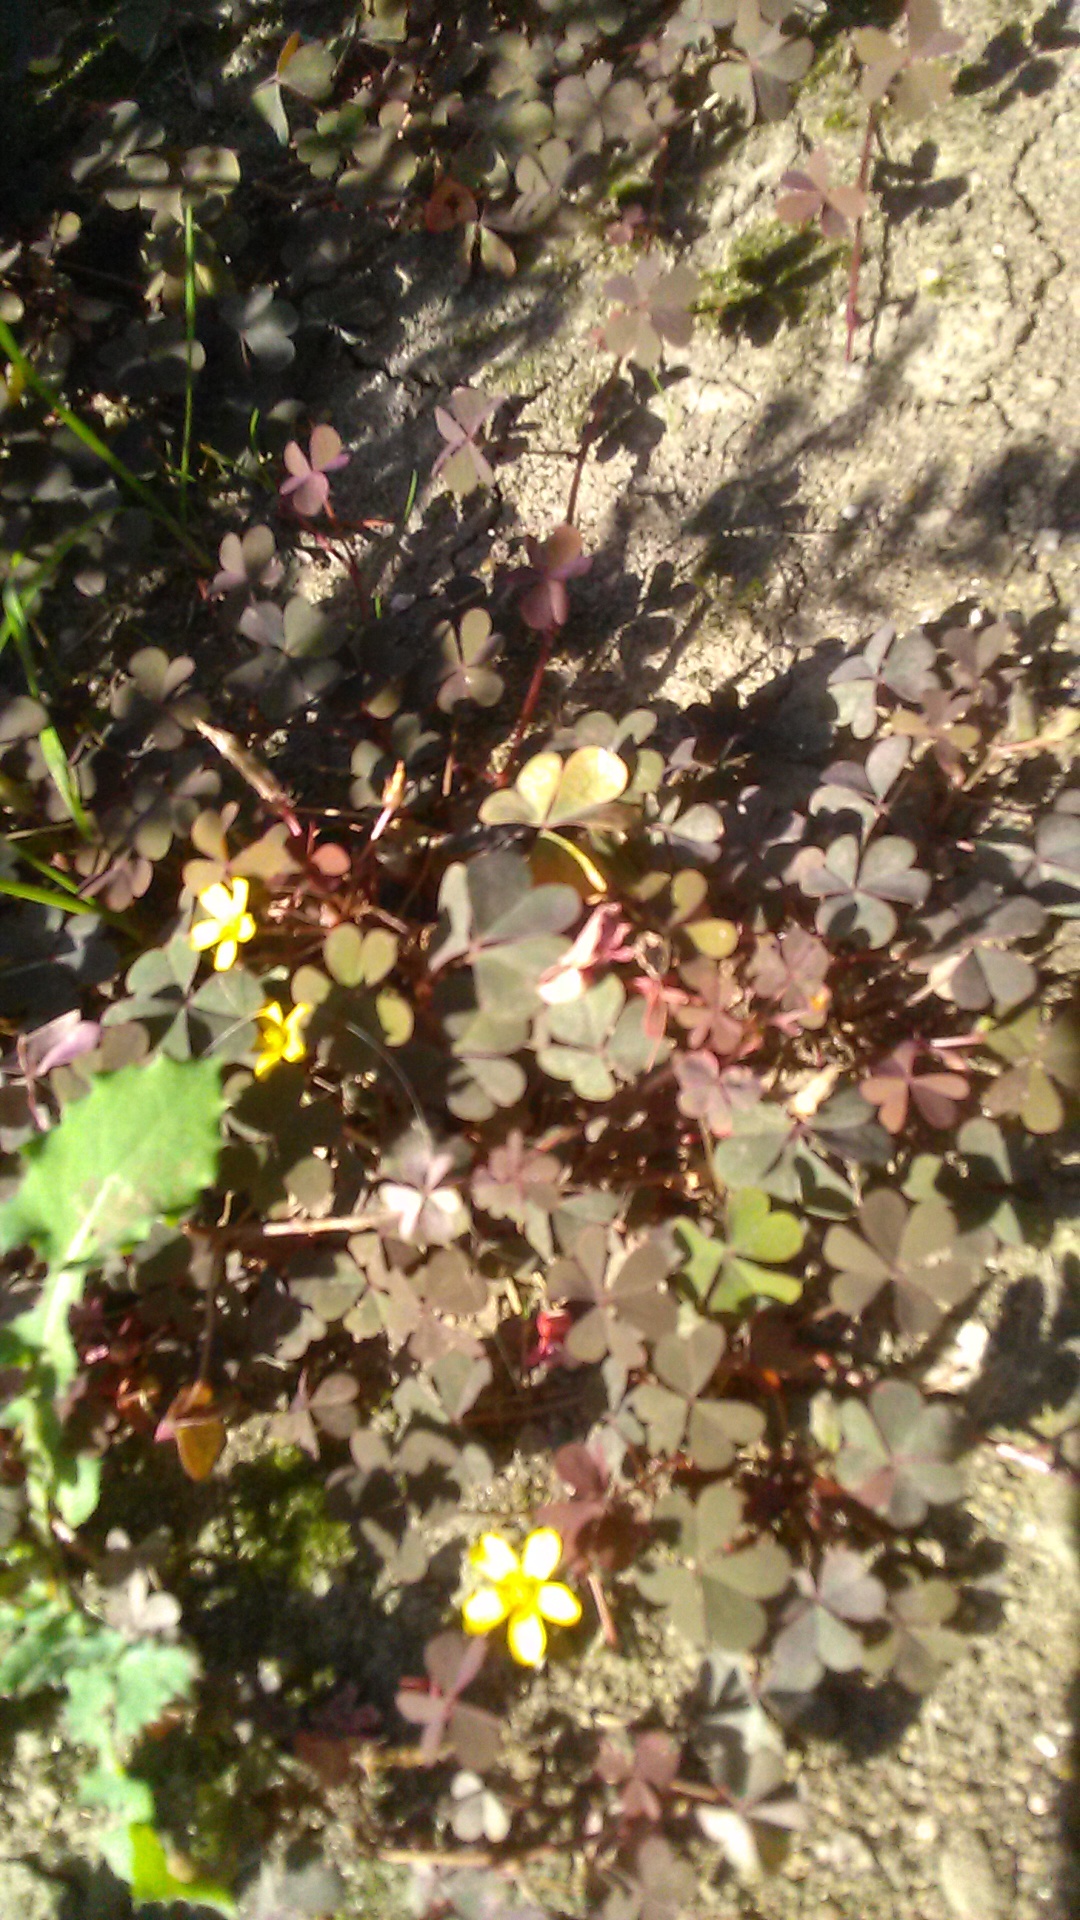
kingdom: Plantae
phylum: Tracheophyta
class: Magnoliopsida
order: Oxalidales
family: Oxalidaceae
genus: Oxalis
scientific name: Oxalis corniculata
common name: Procumbent yellow-sorrel
